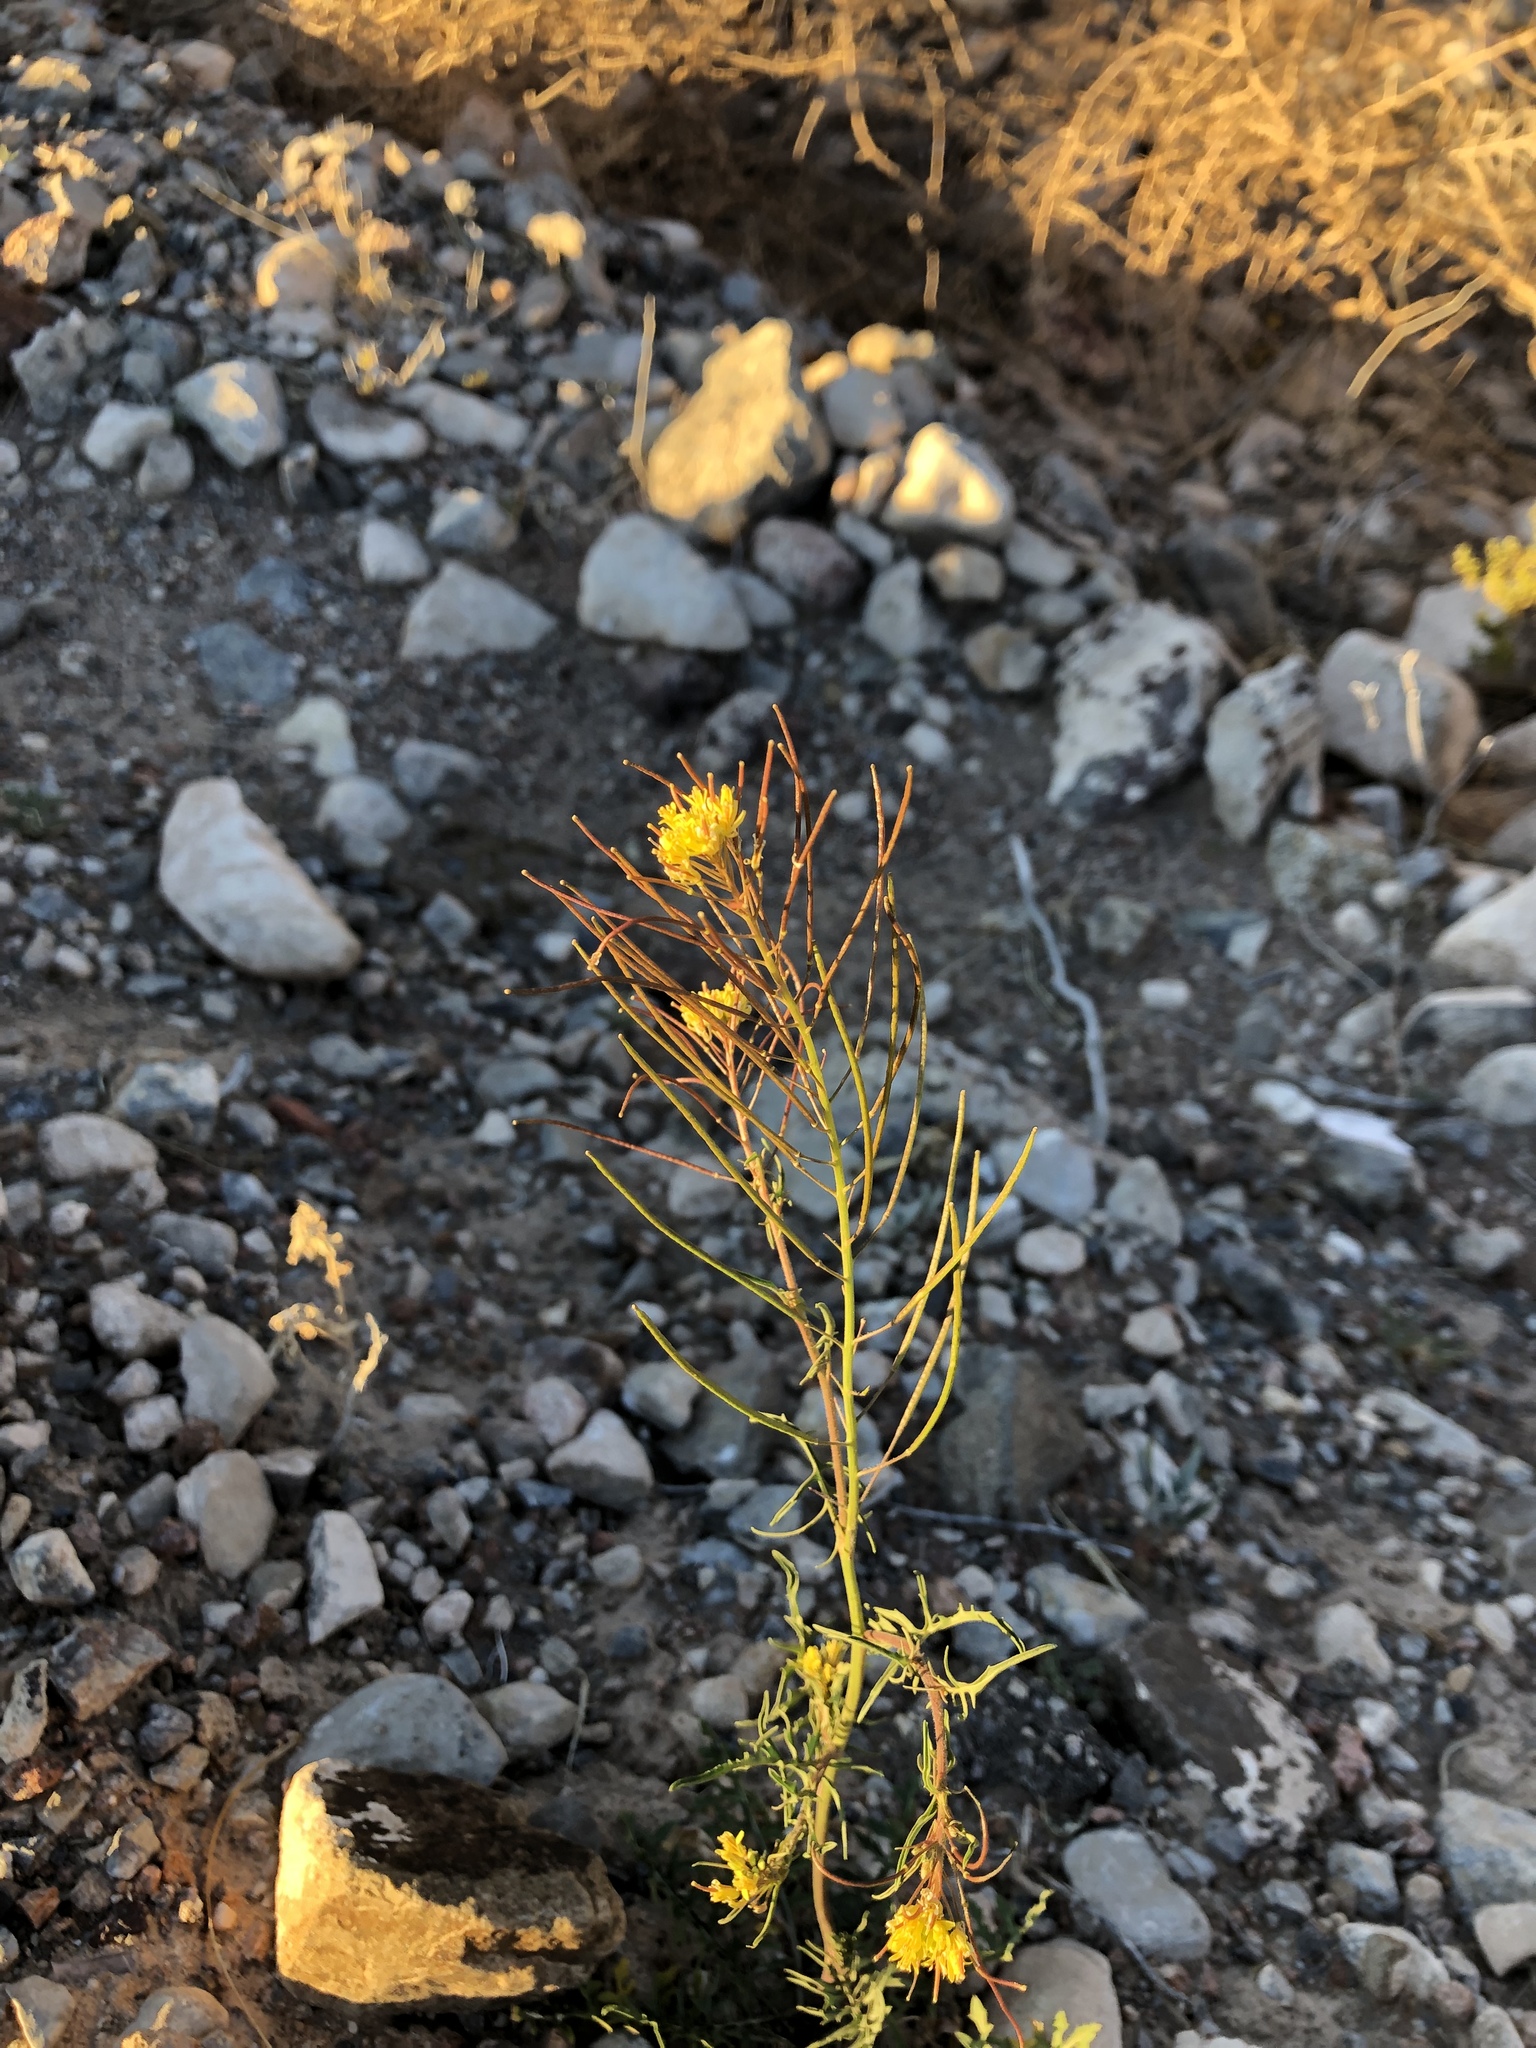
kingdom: Plantae
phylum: Tracheophyta
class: Magnoliopsida
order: Brassicales
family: Brassicaceae
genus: Sisymbrium
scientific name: Sisymbrium irio
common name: London rocket
